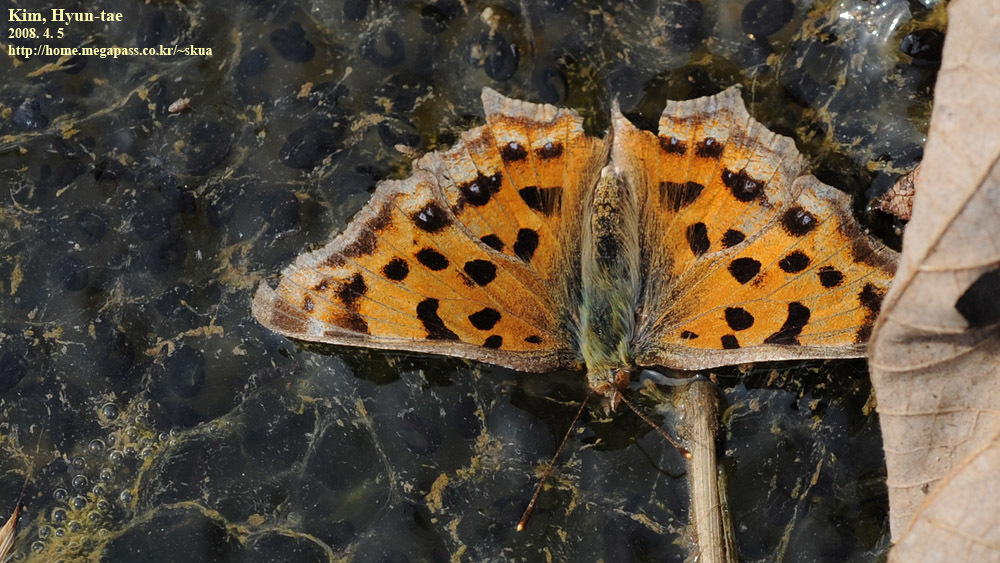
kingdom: Animalia
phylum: Arthropoda
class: Insecta
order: Lepidoptera
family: Nymphalidae
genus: Polygonia
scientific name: Polygonia c-aureum
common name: Asian comma
